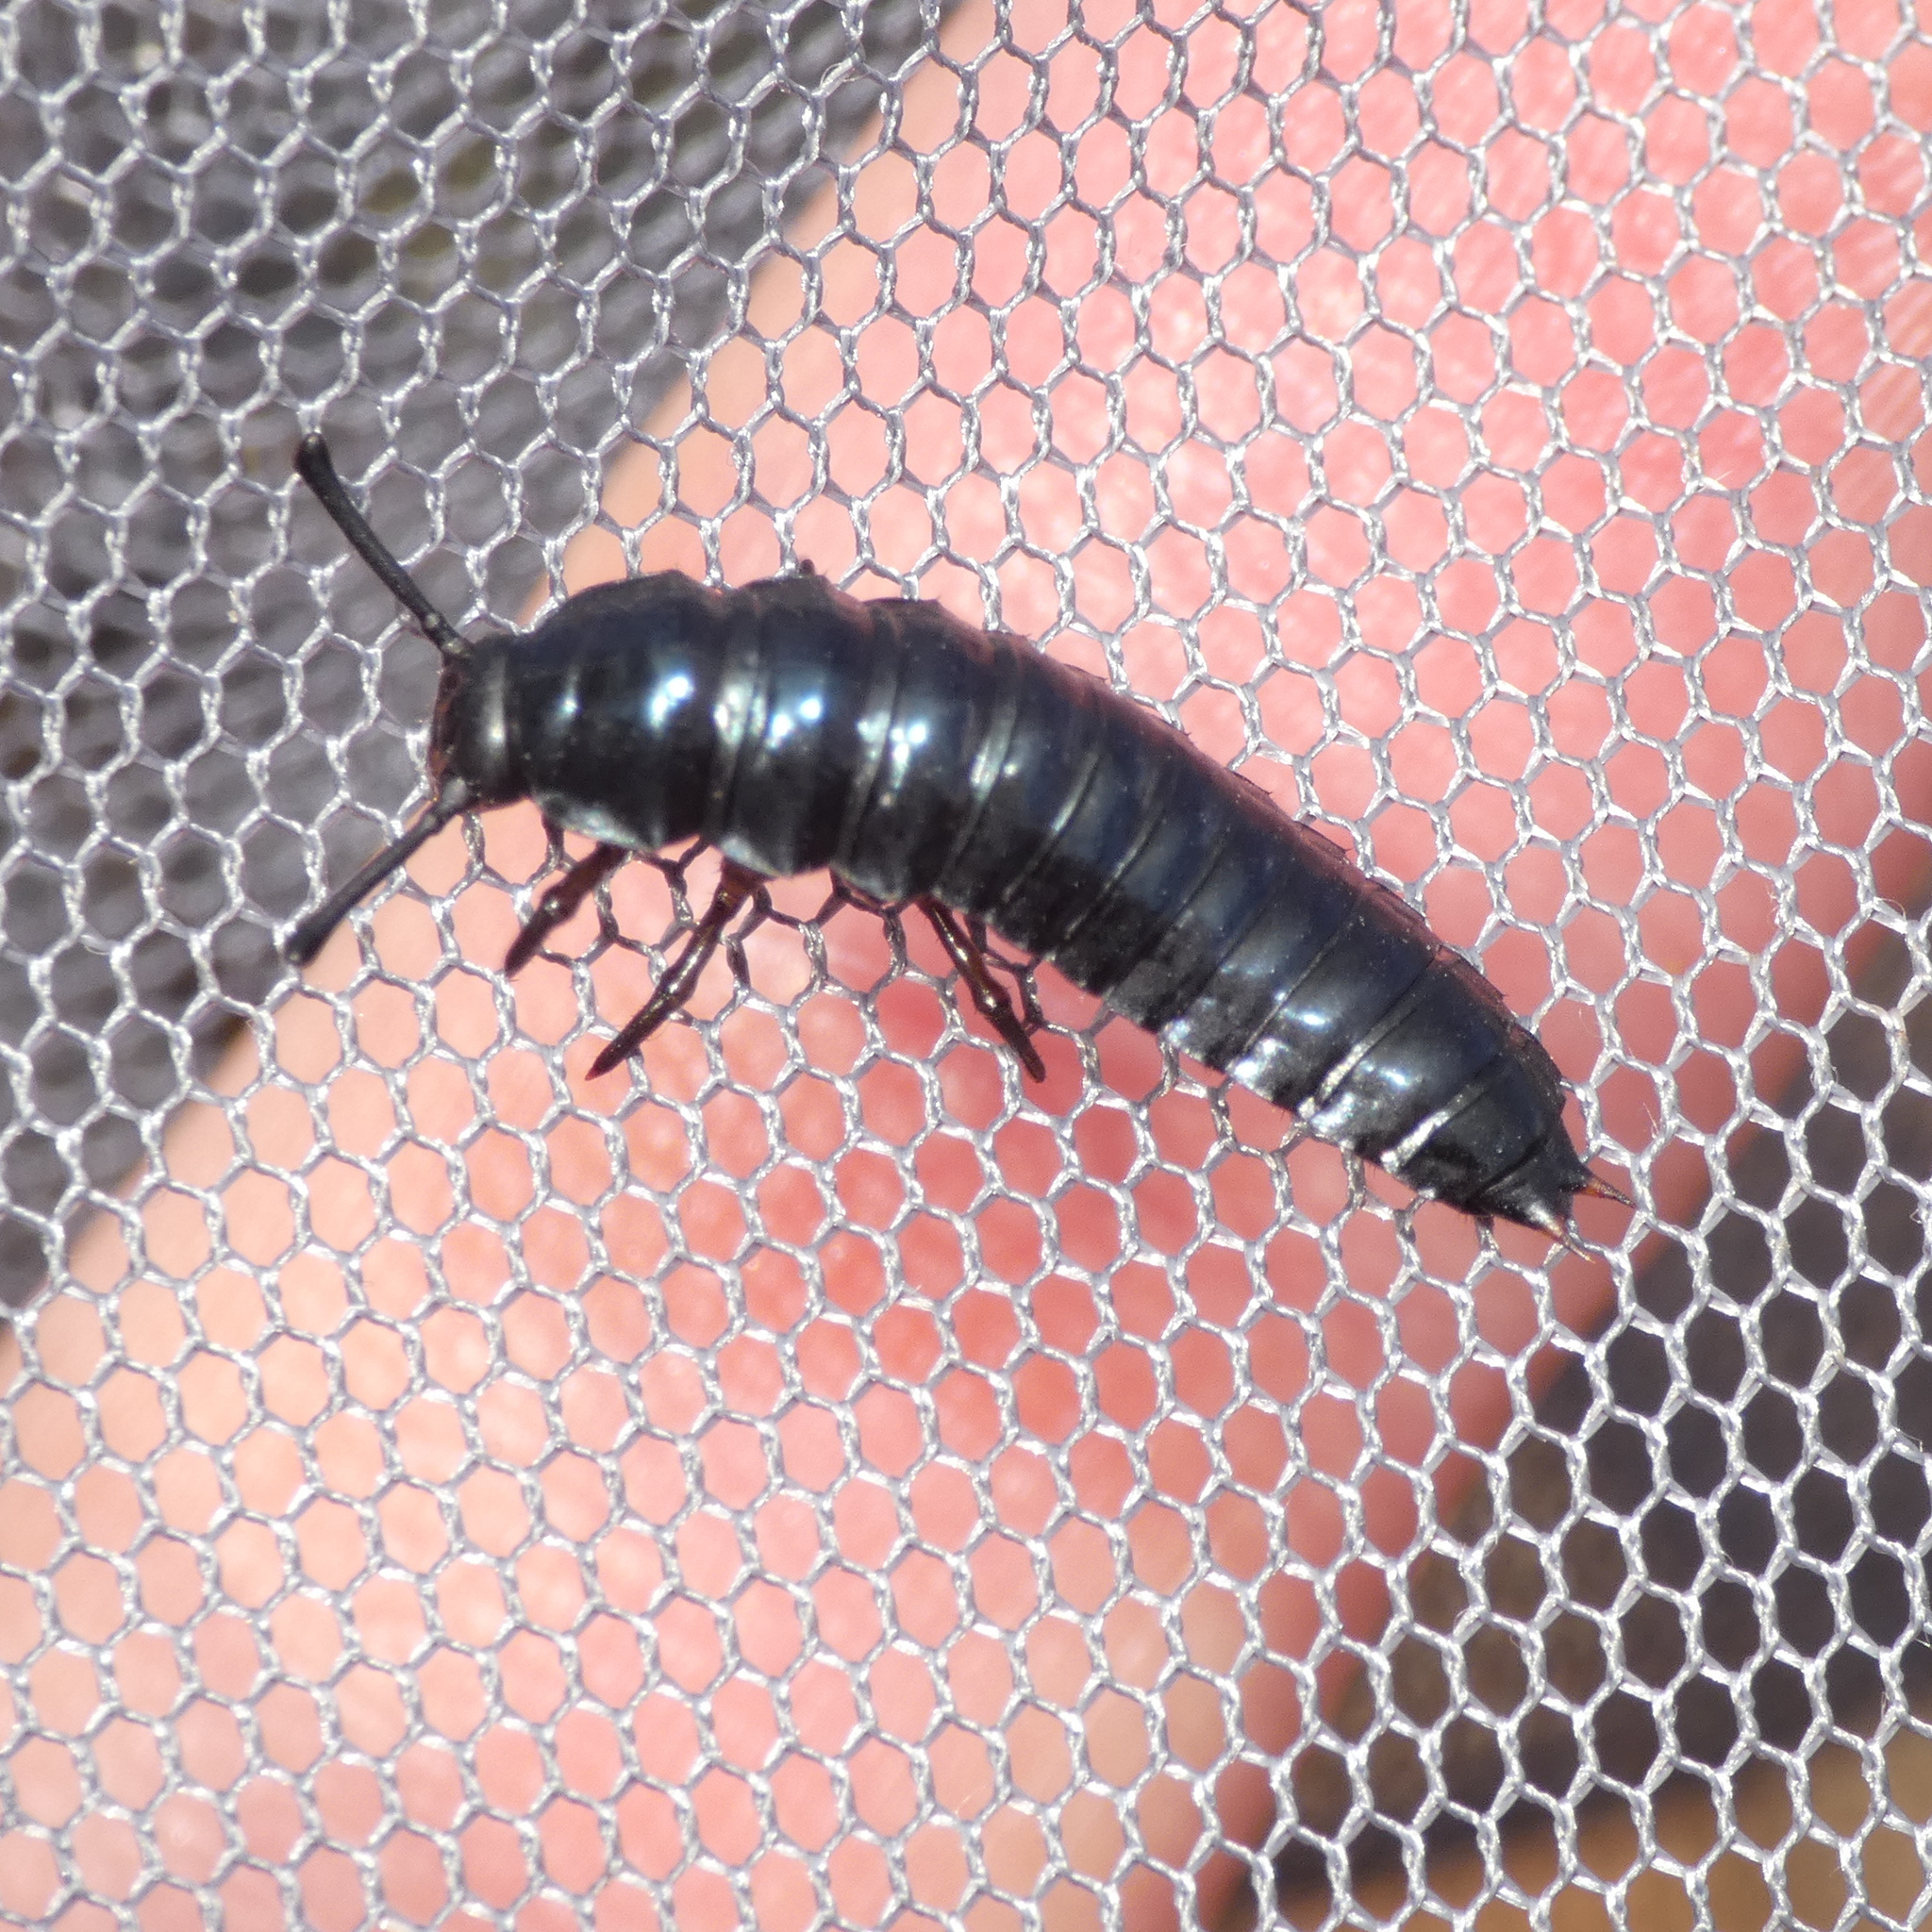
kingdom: Animalia
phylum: Arthropoda
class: Insecta
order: Coleoptera
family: Tenebrionidae
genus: Catamerus
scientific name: Catamerus
